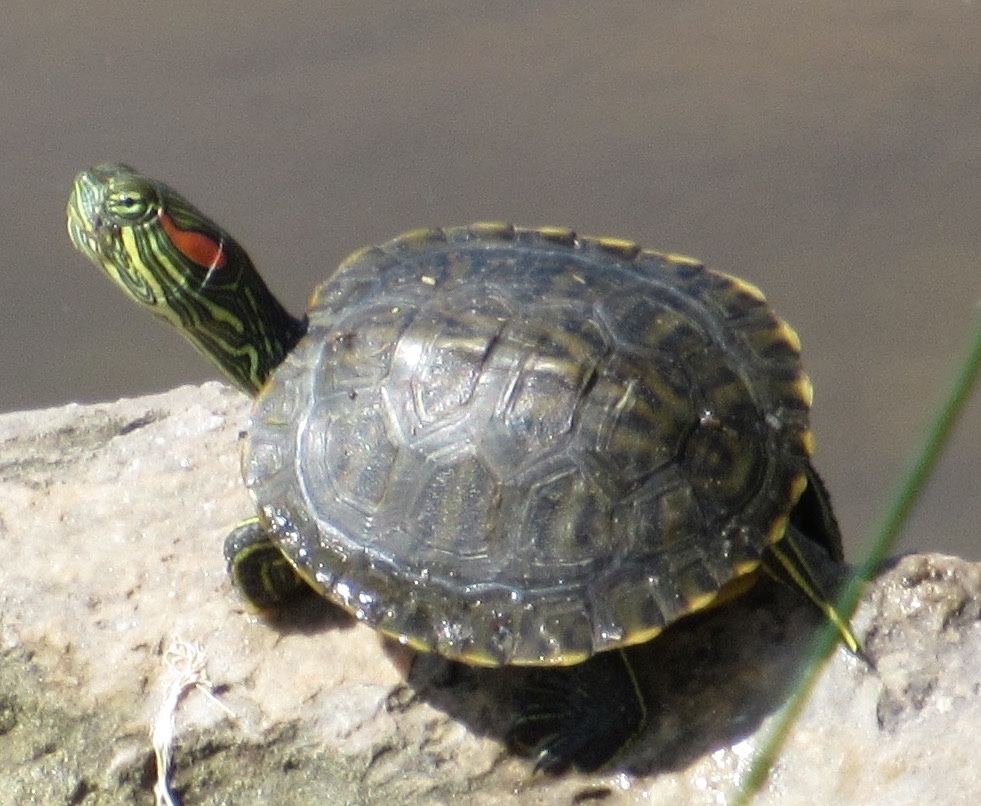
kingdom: Animalia
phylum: Chordata
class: Testudines
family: Emydidae
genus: Trachemys
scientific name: Trachemys scripta
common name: Slider
